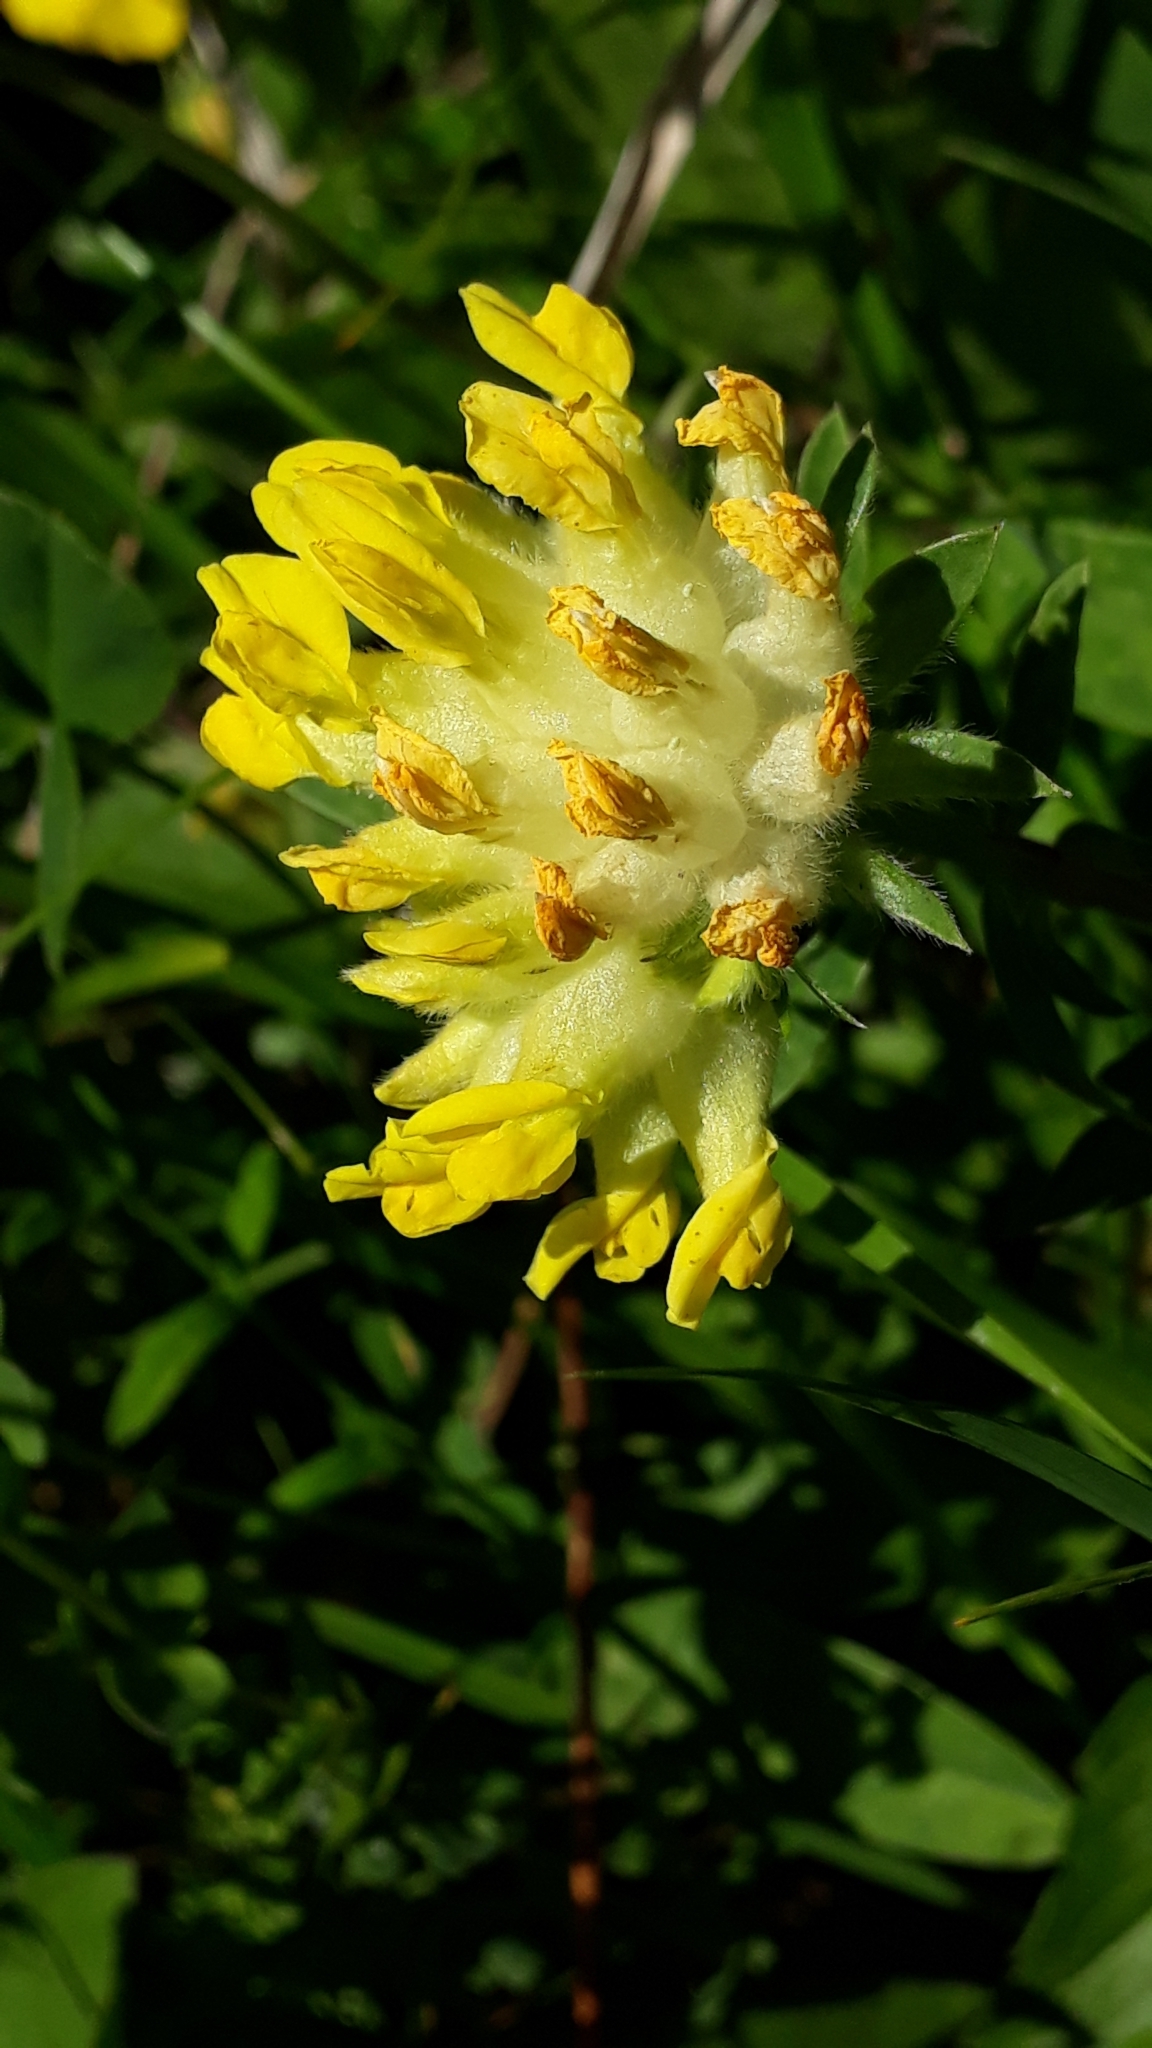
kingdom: Plantae
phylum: Tracheophyta
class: Magnoliopsida
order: Fabales
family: Fabaceae
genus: Anthyllis
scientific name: Anthyllis vulneraria
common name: Kidney vetch
